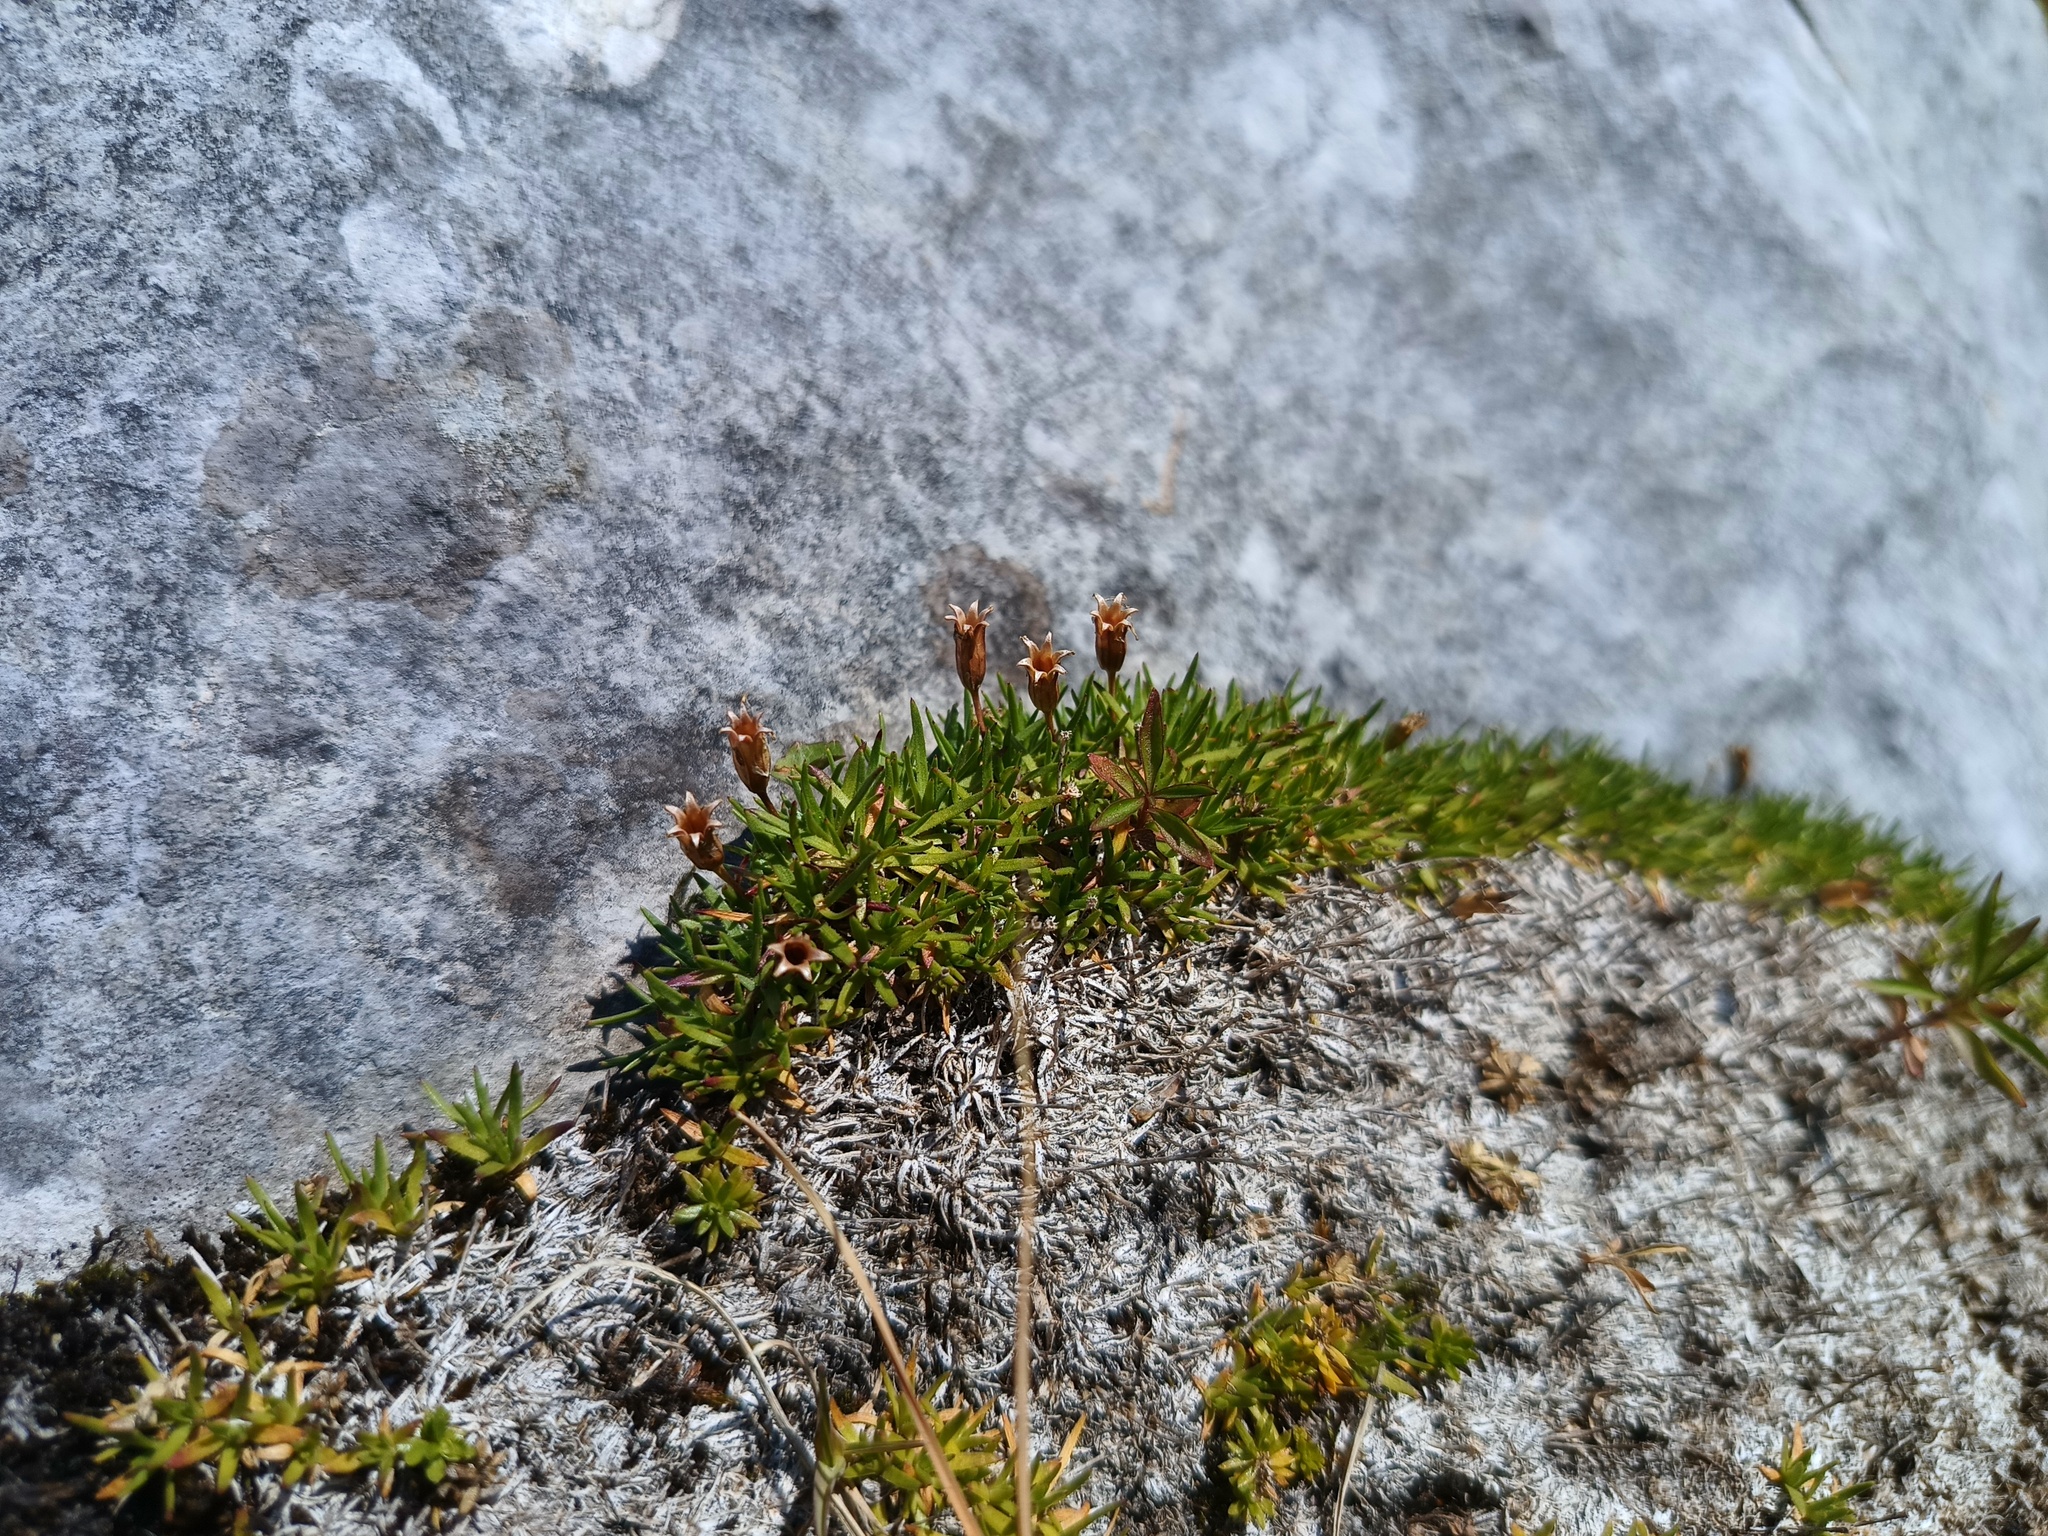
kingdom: Plantae
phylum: Tracheophyta
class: Magnoliopsida
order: Caryophyllales
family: Caryophyllaceae
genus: Silene
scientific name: Silene acaulis
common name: Moss campion
